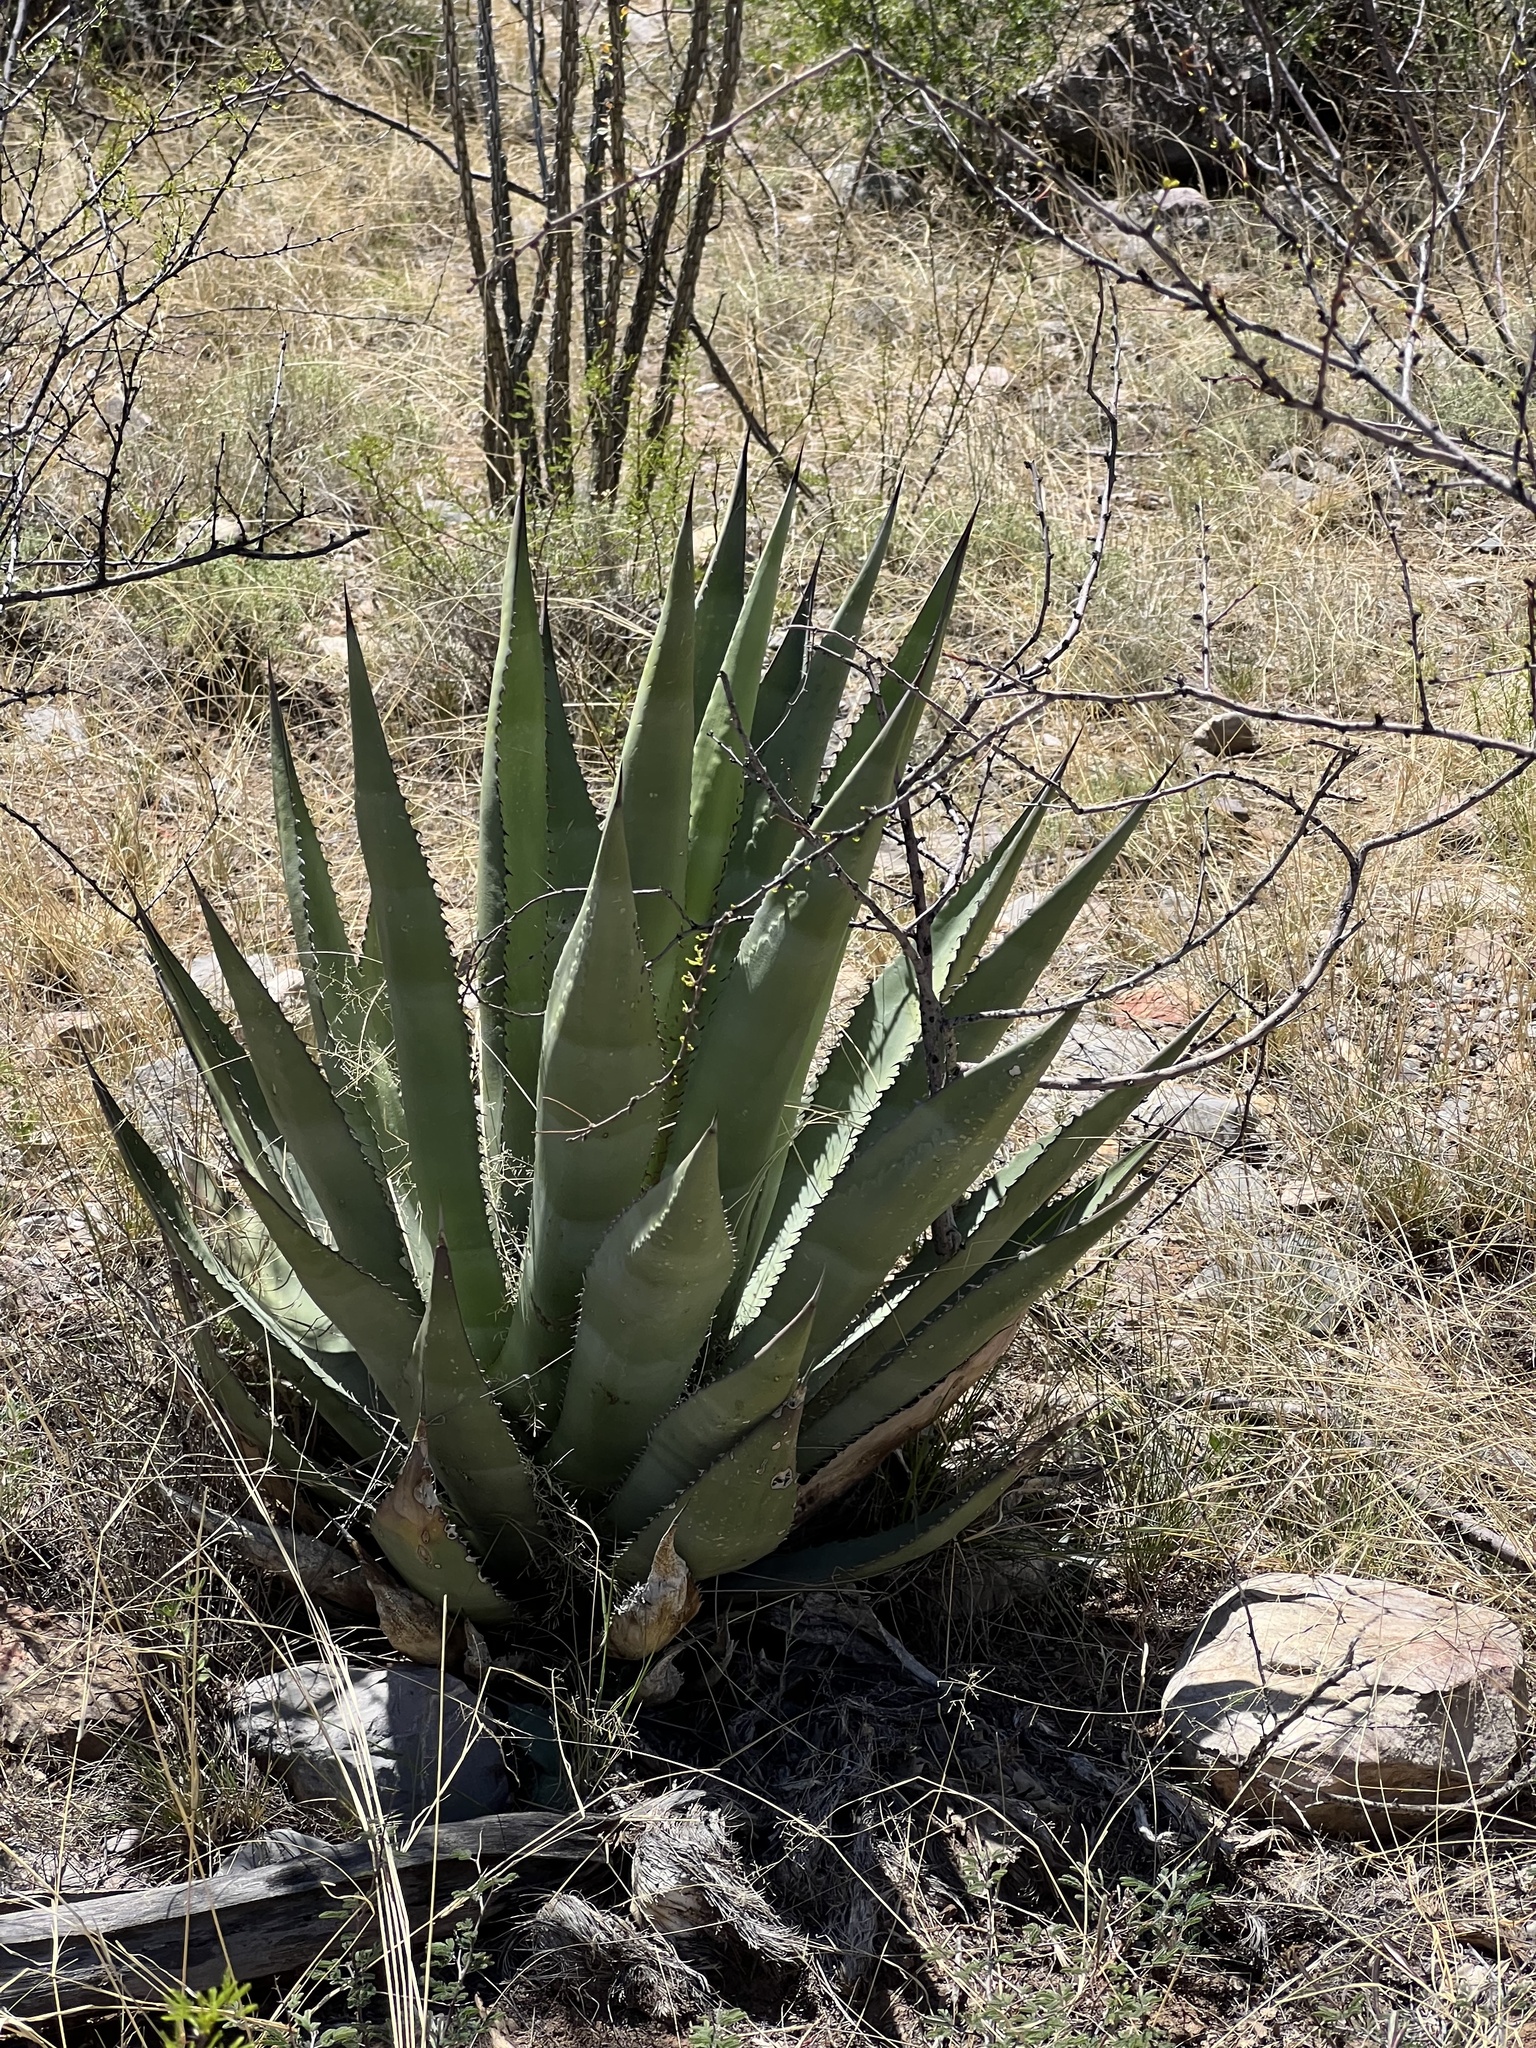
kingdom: Plantae
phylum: Tracheophyta
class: Liliopsida
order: Asparagales
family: Asparagaceae
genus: Agave
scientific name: Agave palmeri
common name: Palmer agave
